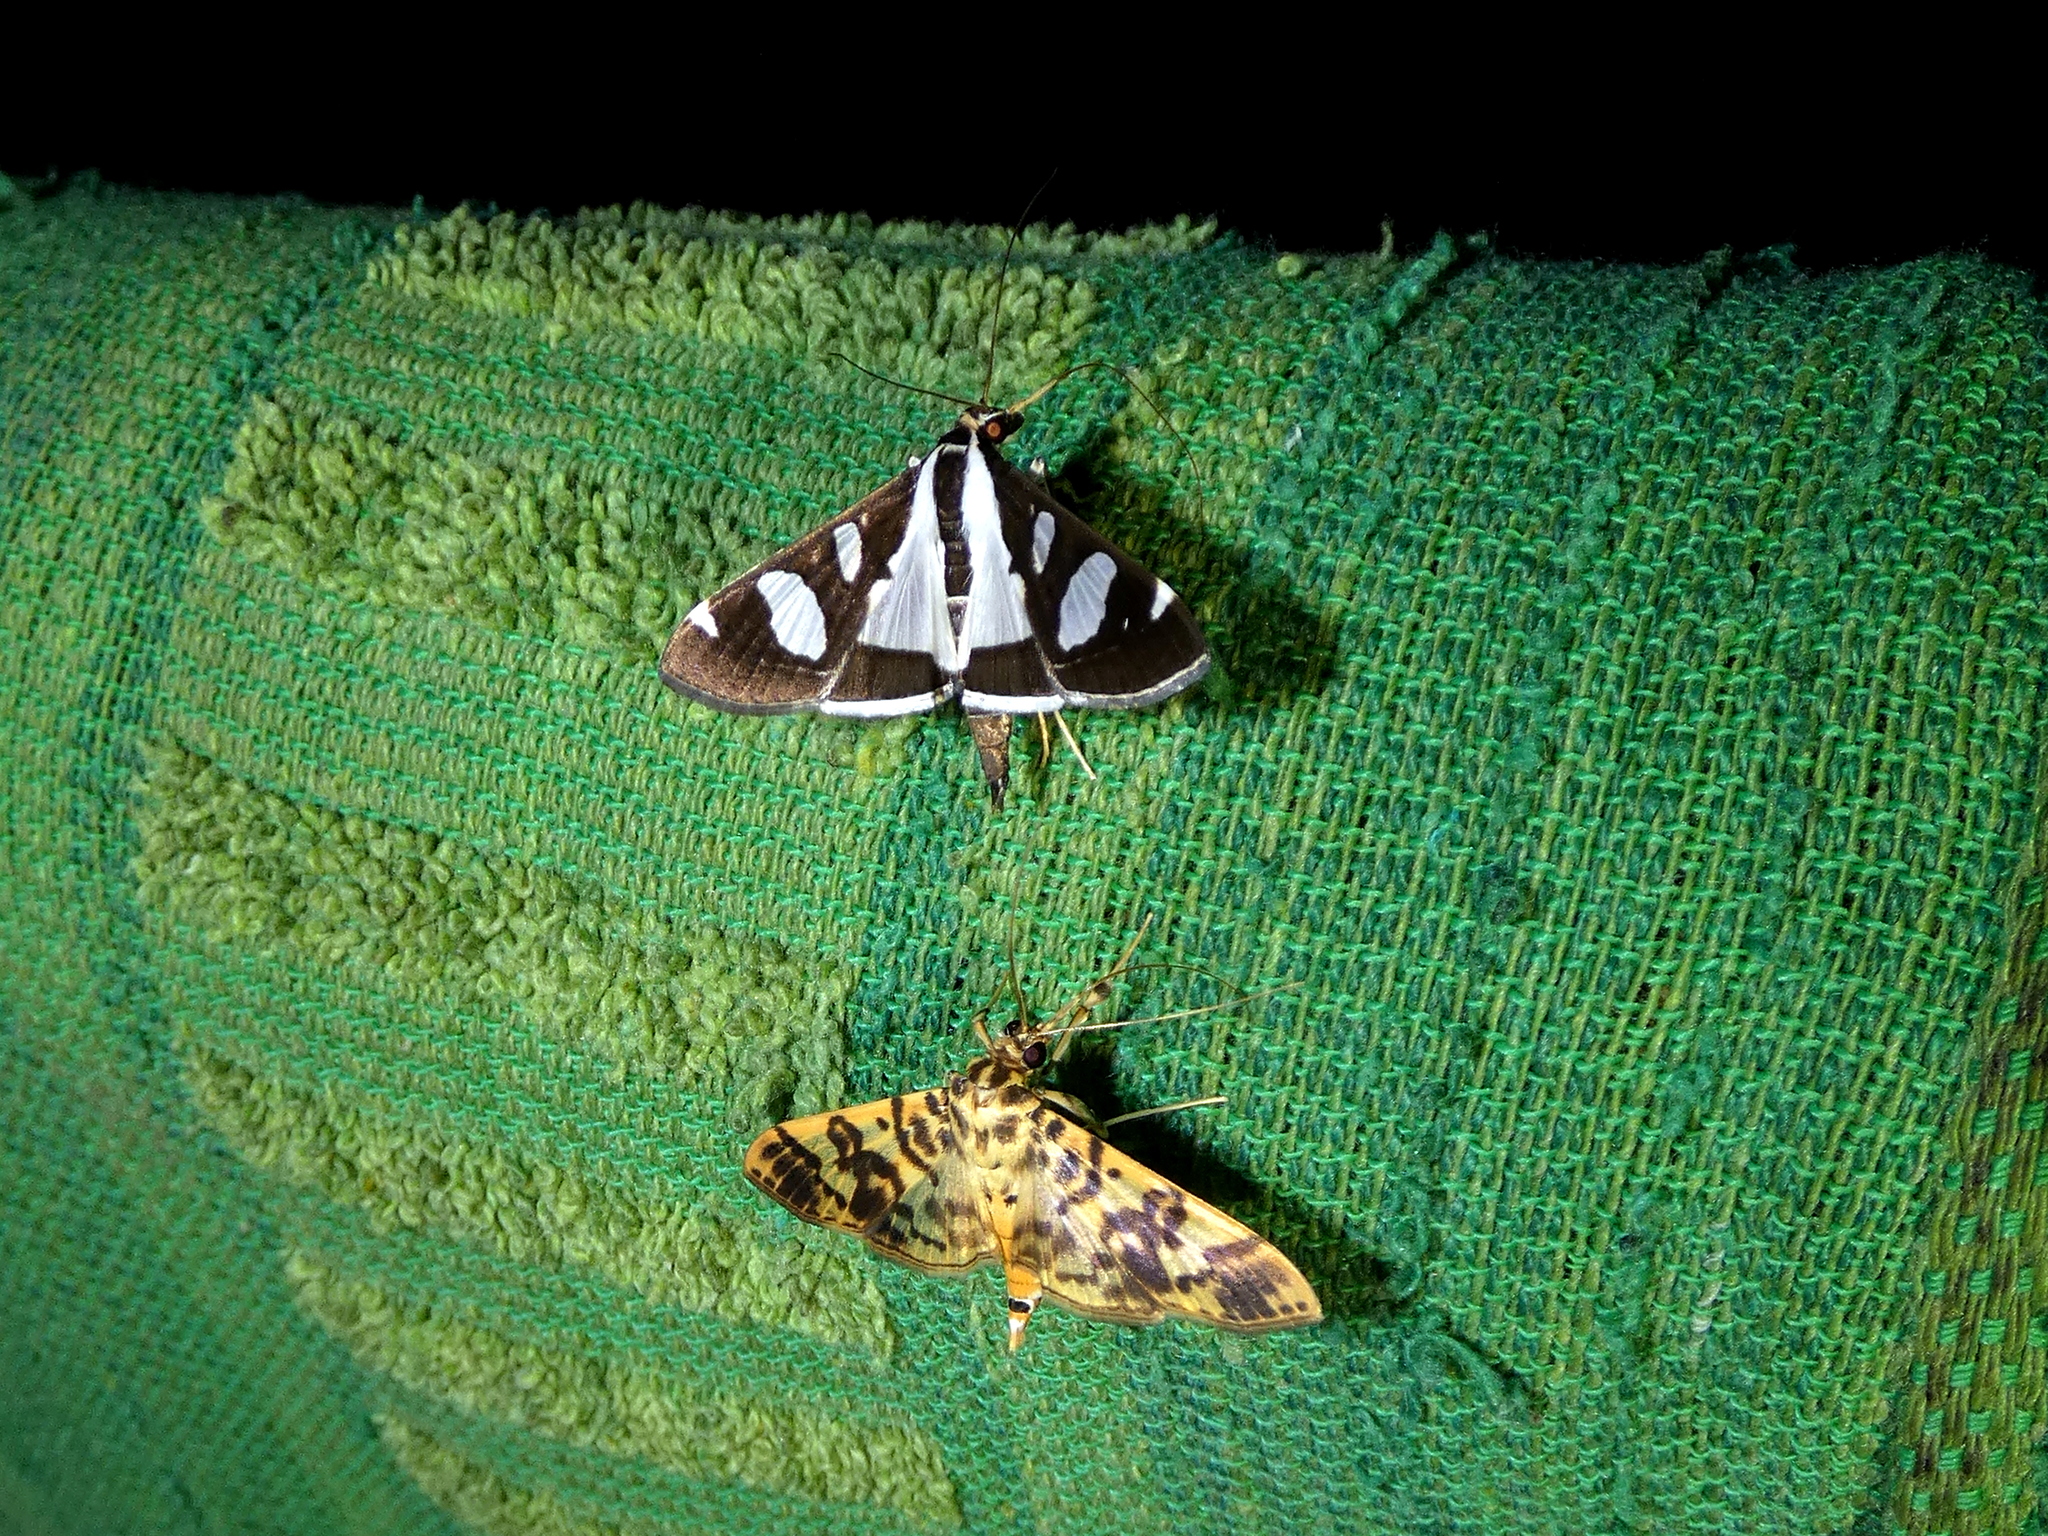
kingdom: Animalia
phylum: Arthropoda
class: Insecta
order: Lepidoptera
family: Crambidae
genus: Glyphodes
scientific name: Glyphodes bicolor
